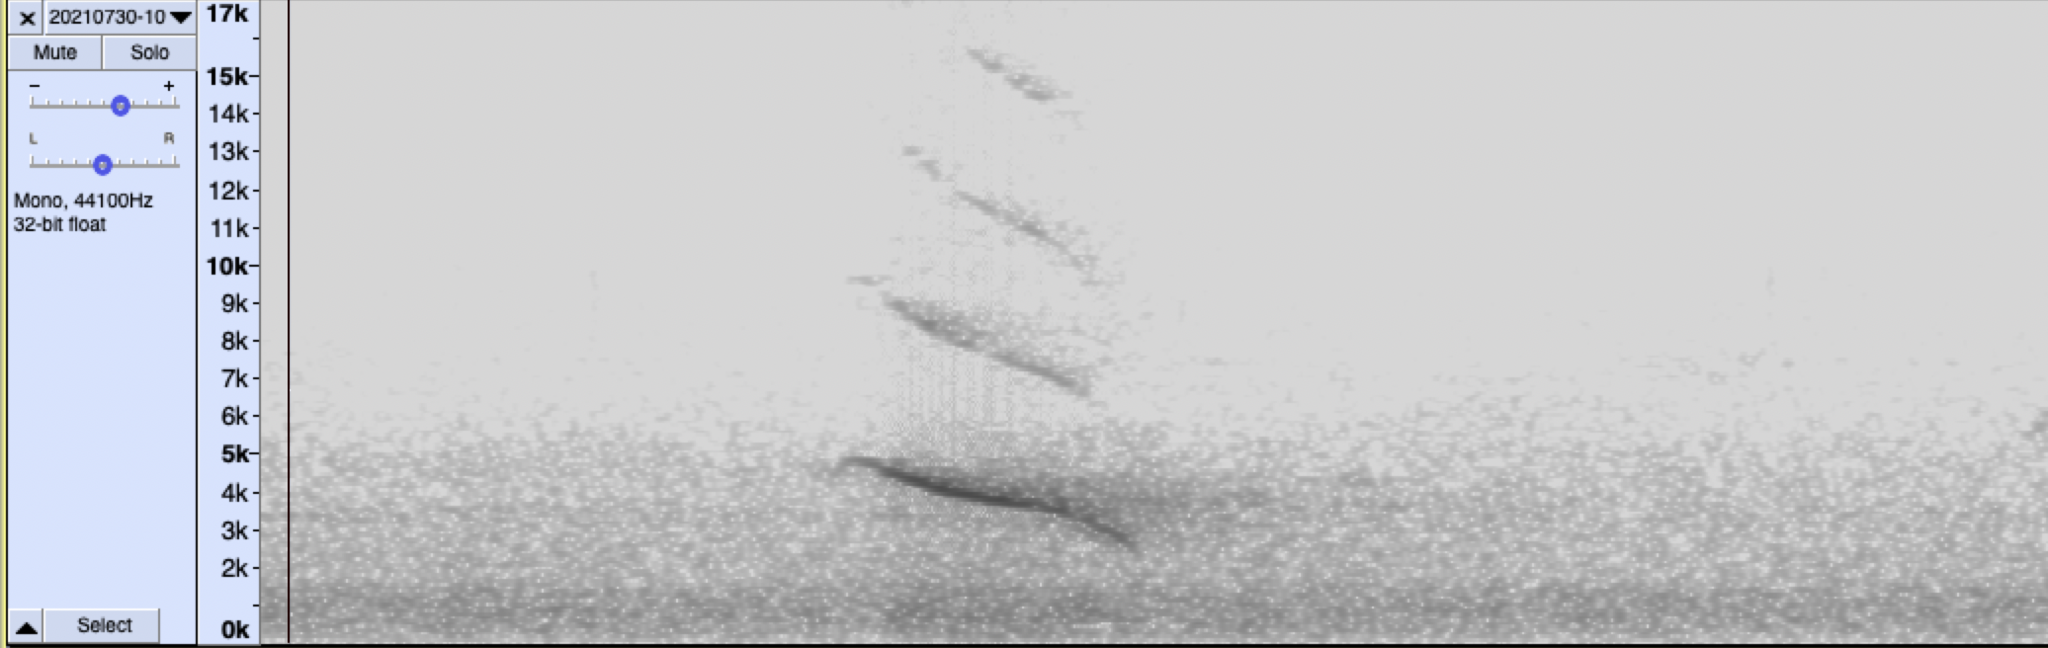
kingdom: Animalia
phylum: Chordata
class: Aves
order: Passeriformes
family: Fringillidae
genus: Hesperiphona
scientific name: Hesperiphona vespertina
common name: Evening grosbeak
